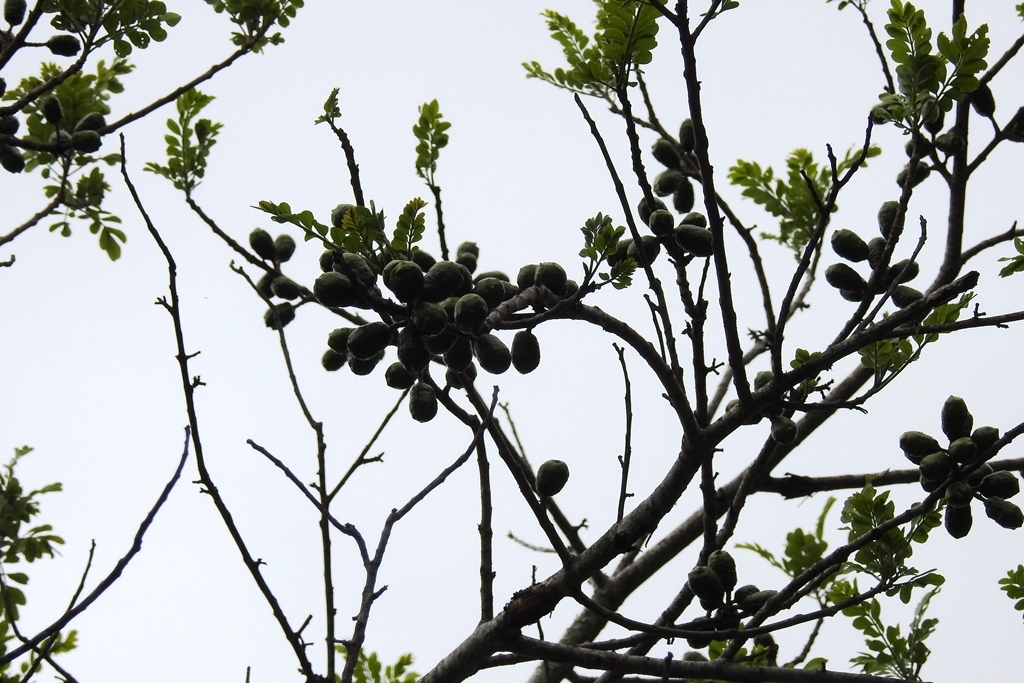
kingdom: Plantae
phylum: Tracheophyta
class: Magnoliopsida
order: Sapindales
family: Anacardiaceae
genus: Spondias
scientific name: Spondias purpurea
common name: Purple mombin
